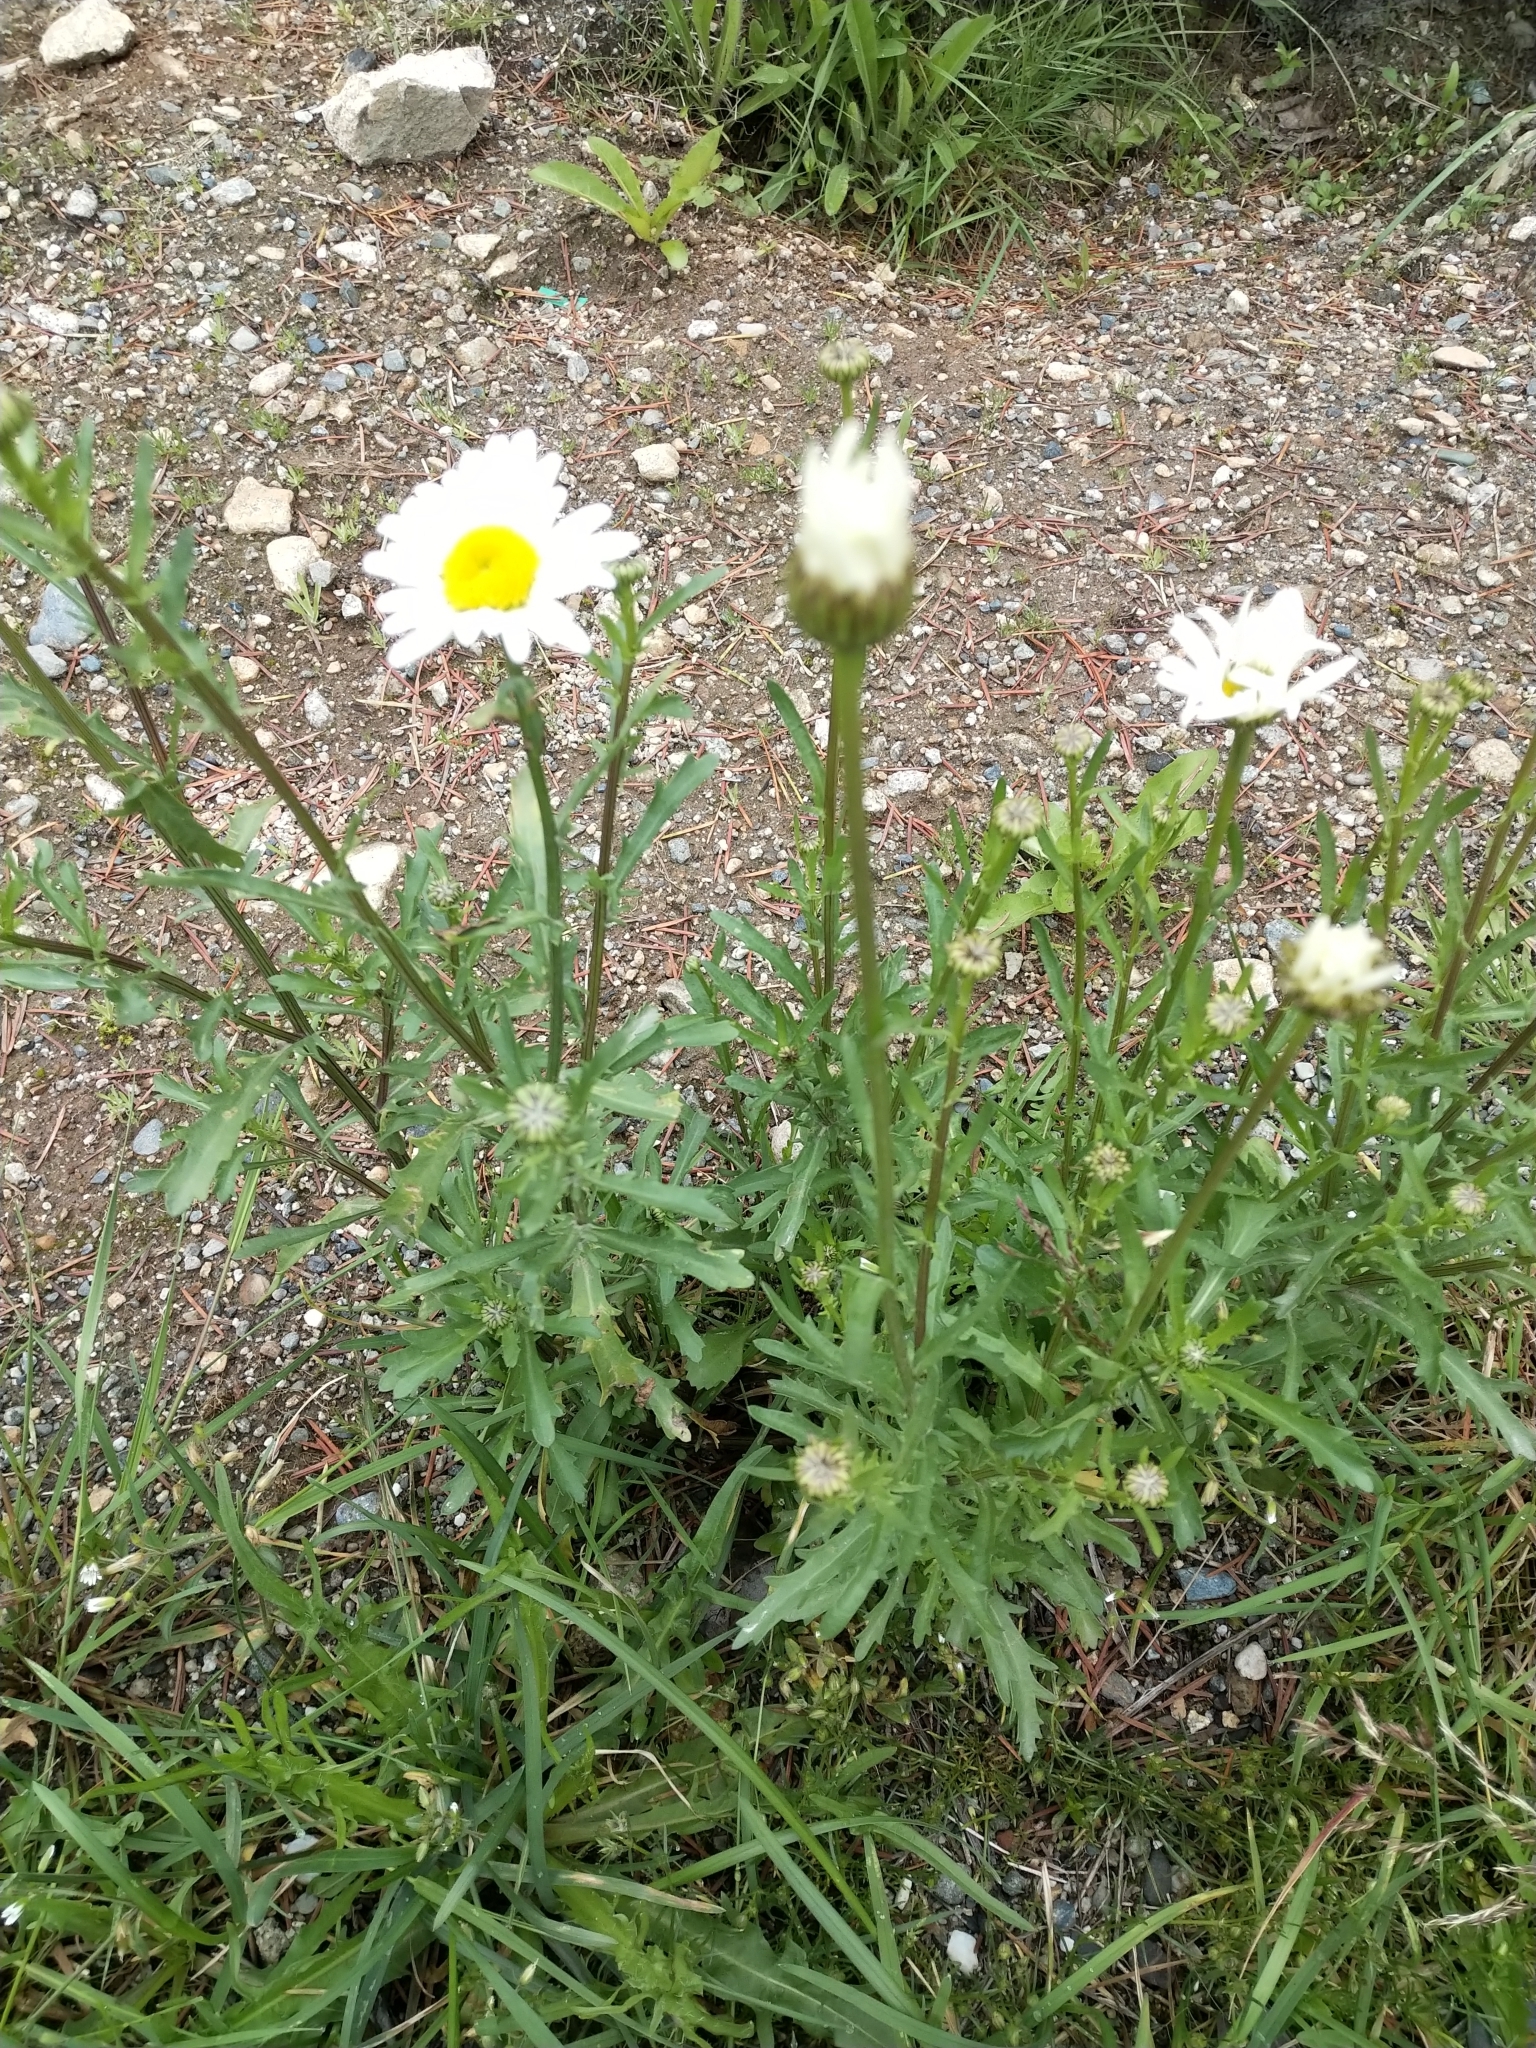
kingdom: Plantae
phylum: Tracheophyta
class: Magnoliopsida
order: Asterales
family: Asteraceae
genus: Leucanthemum
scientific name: Leucanthemum vulgare
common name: Oxeye daisy
